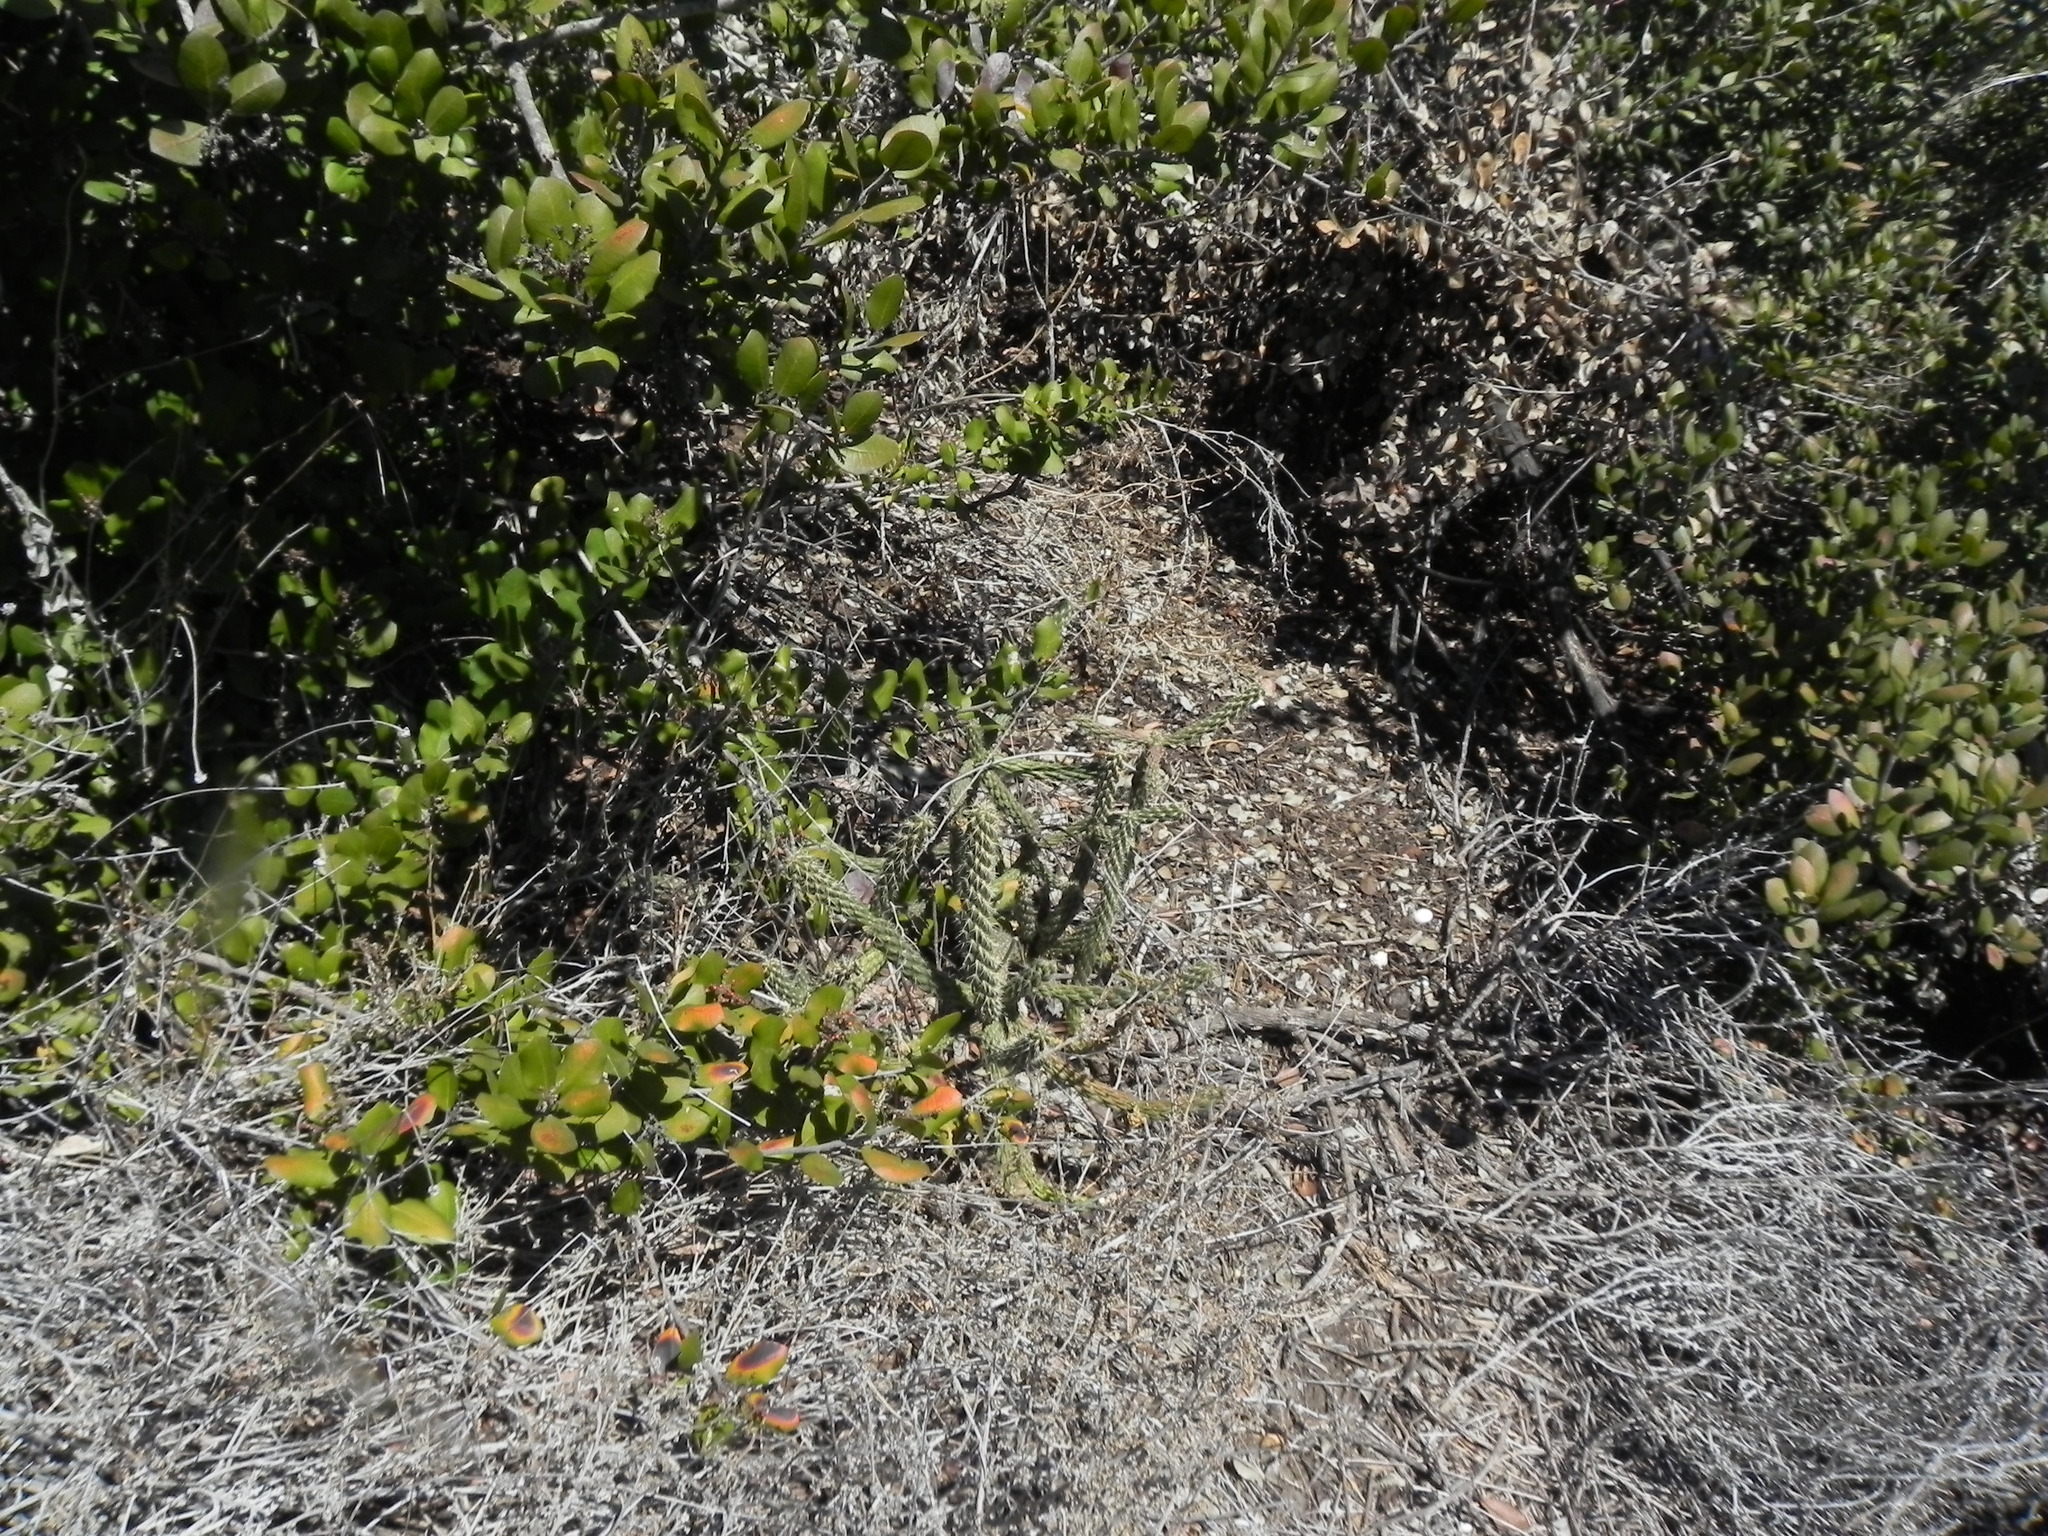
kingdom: Plantae
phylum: Tracheophyta
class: Magnoliopsida
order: Caryophyllales
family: Cactaceae
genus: Cylindropuntia
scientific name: Cylindropuntia californica
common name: Snake cholla
